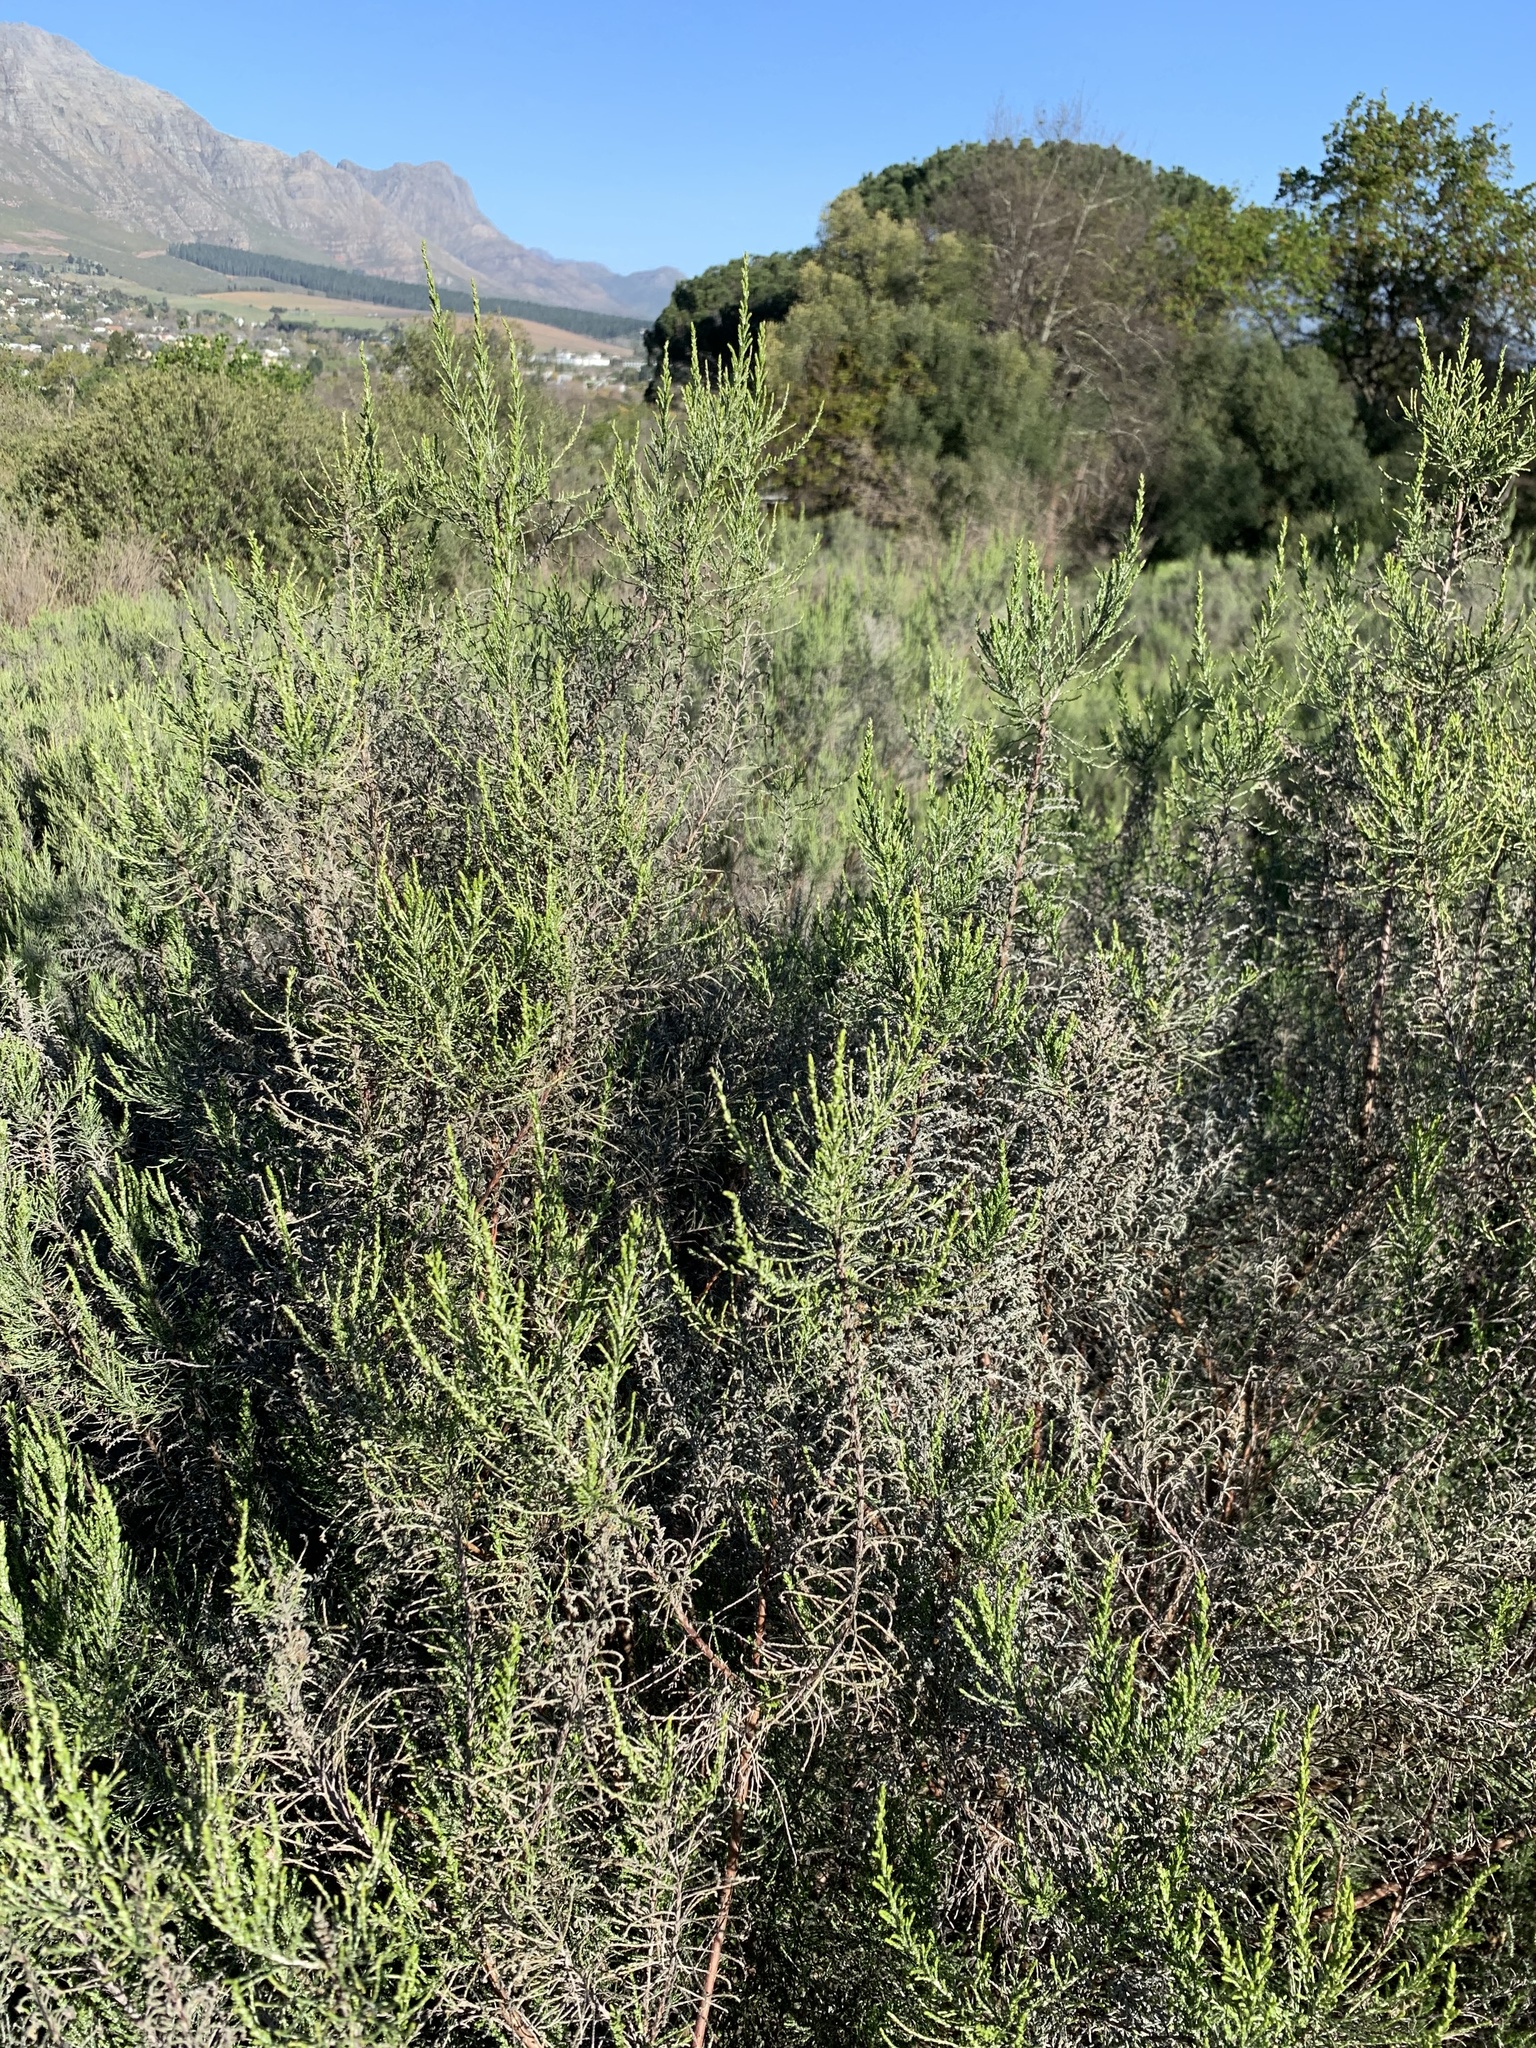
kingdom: Plantae
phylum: Tracheophyta
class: Magnoliopsida
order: Asterales
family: Asteraceae
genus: Dicerothamnus
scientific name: Dicerothamnus rhinocerotis
